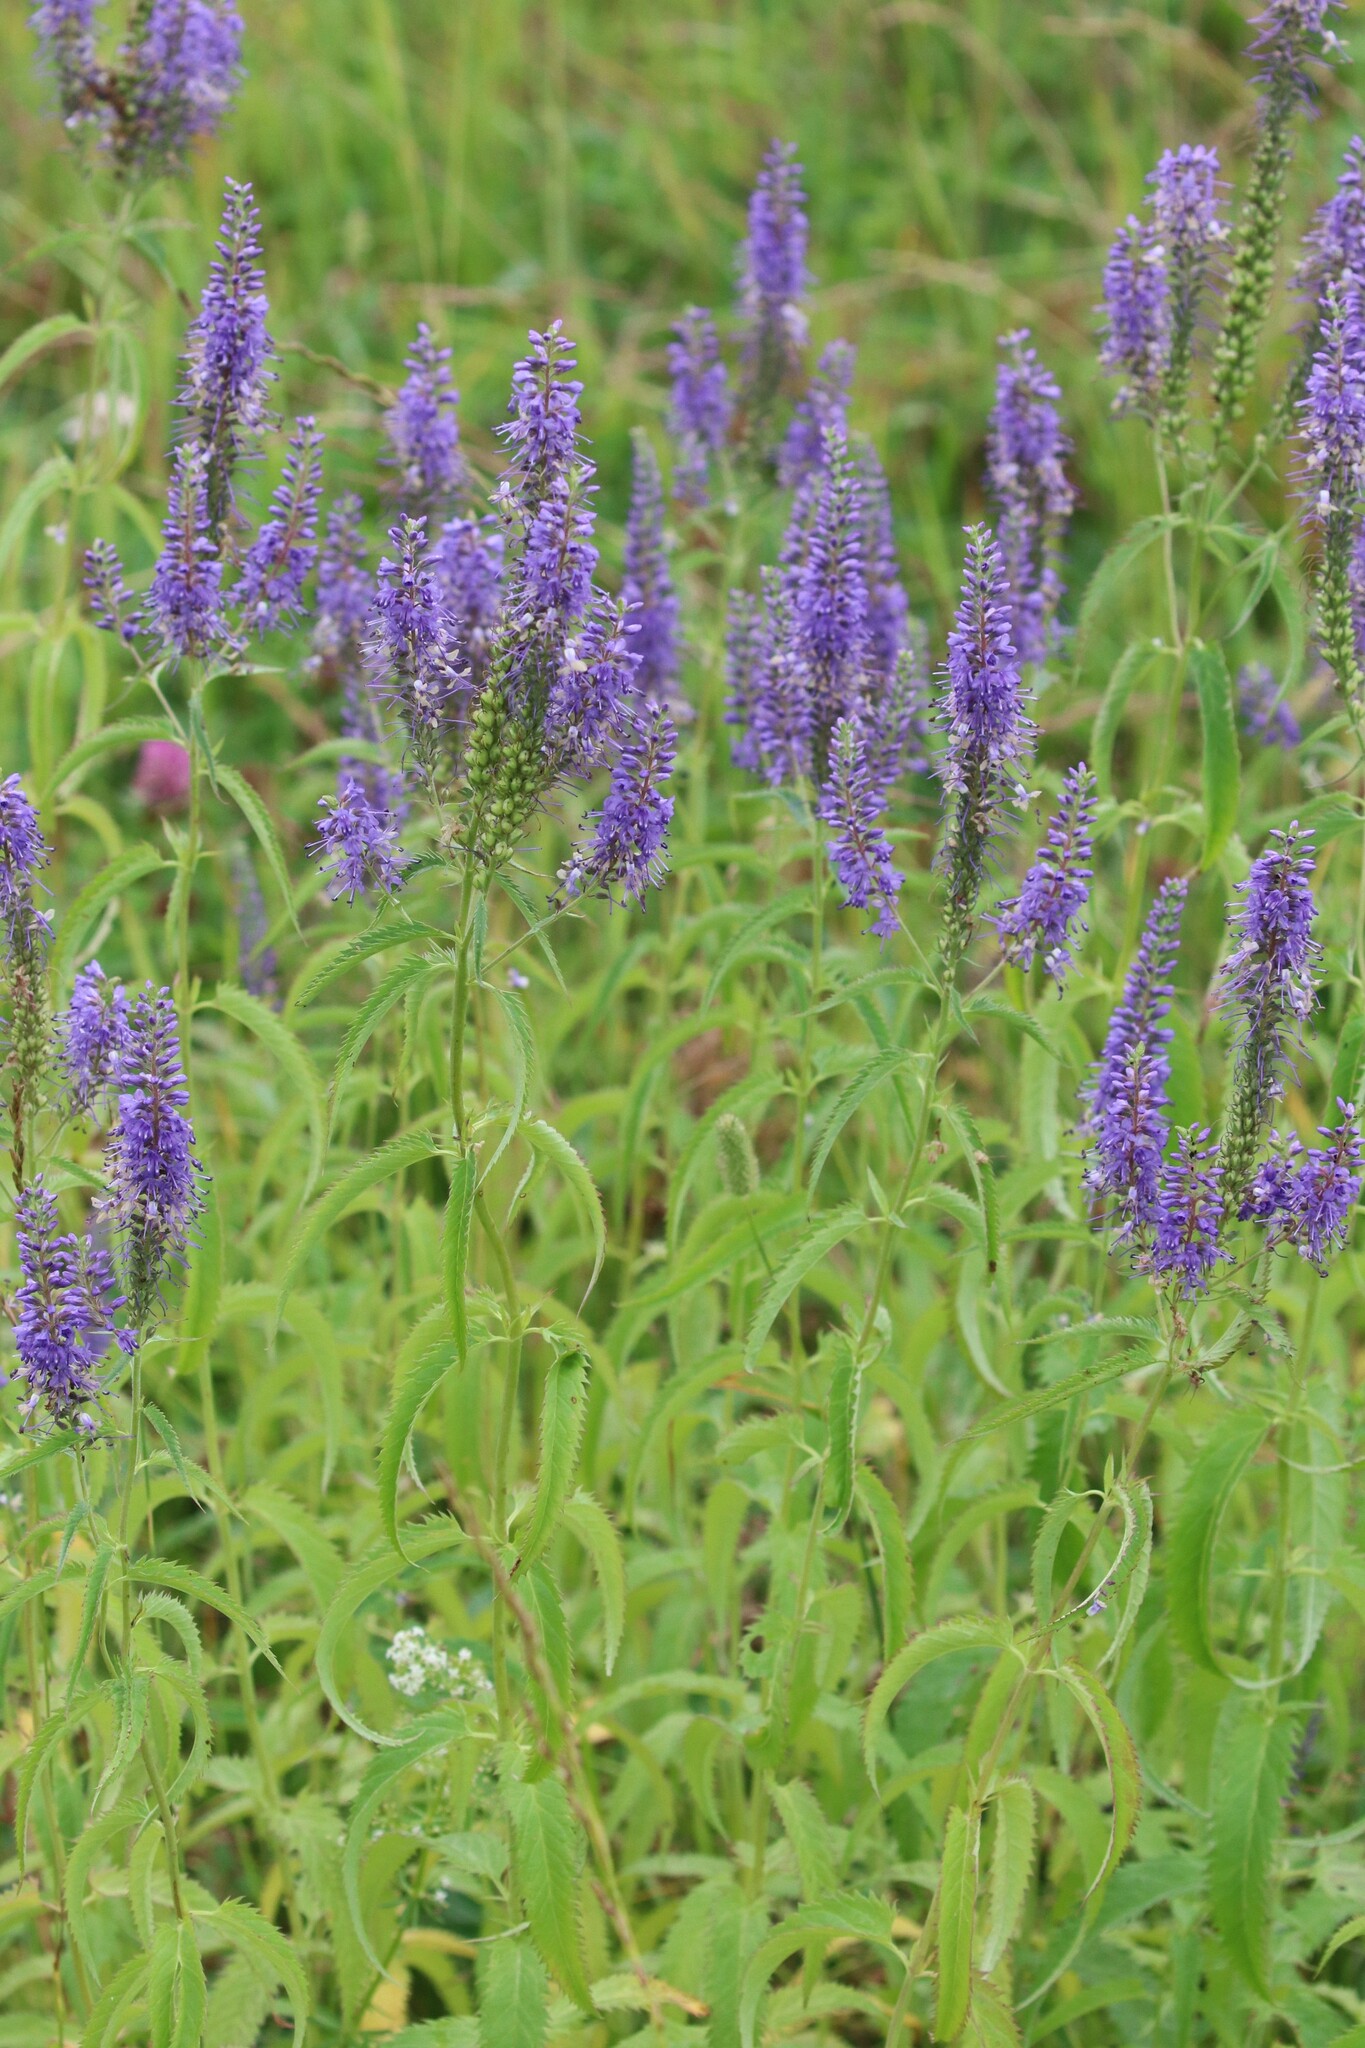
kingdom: Plantae
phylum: Tracheophyta
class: Magnoliopsida
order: Lamiales
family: Plantaginaceae
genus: Veronica
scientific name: Veronica longifolia
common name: Garden speedwell
